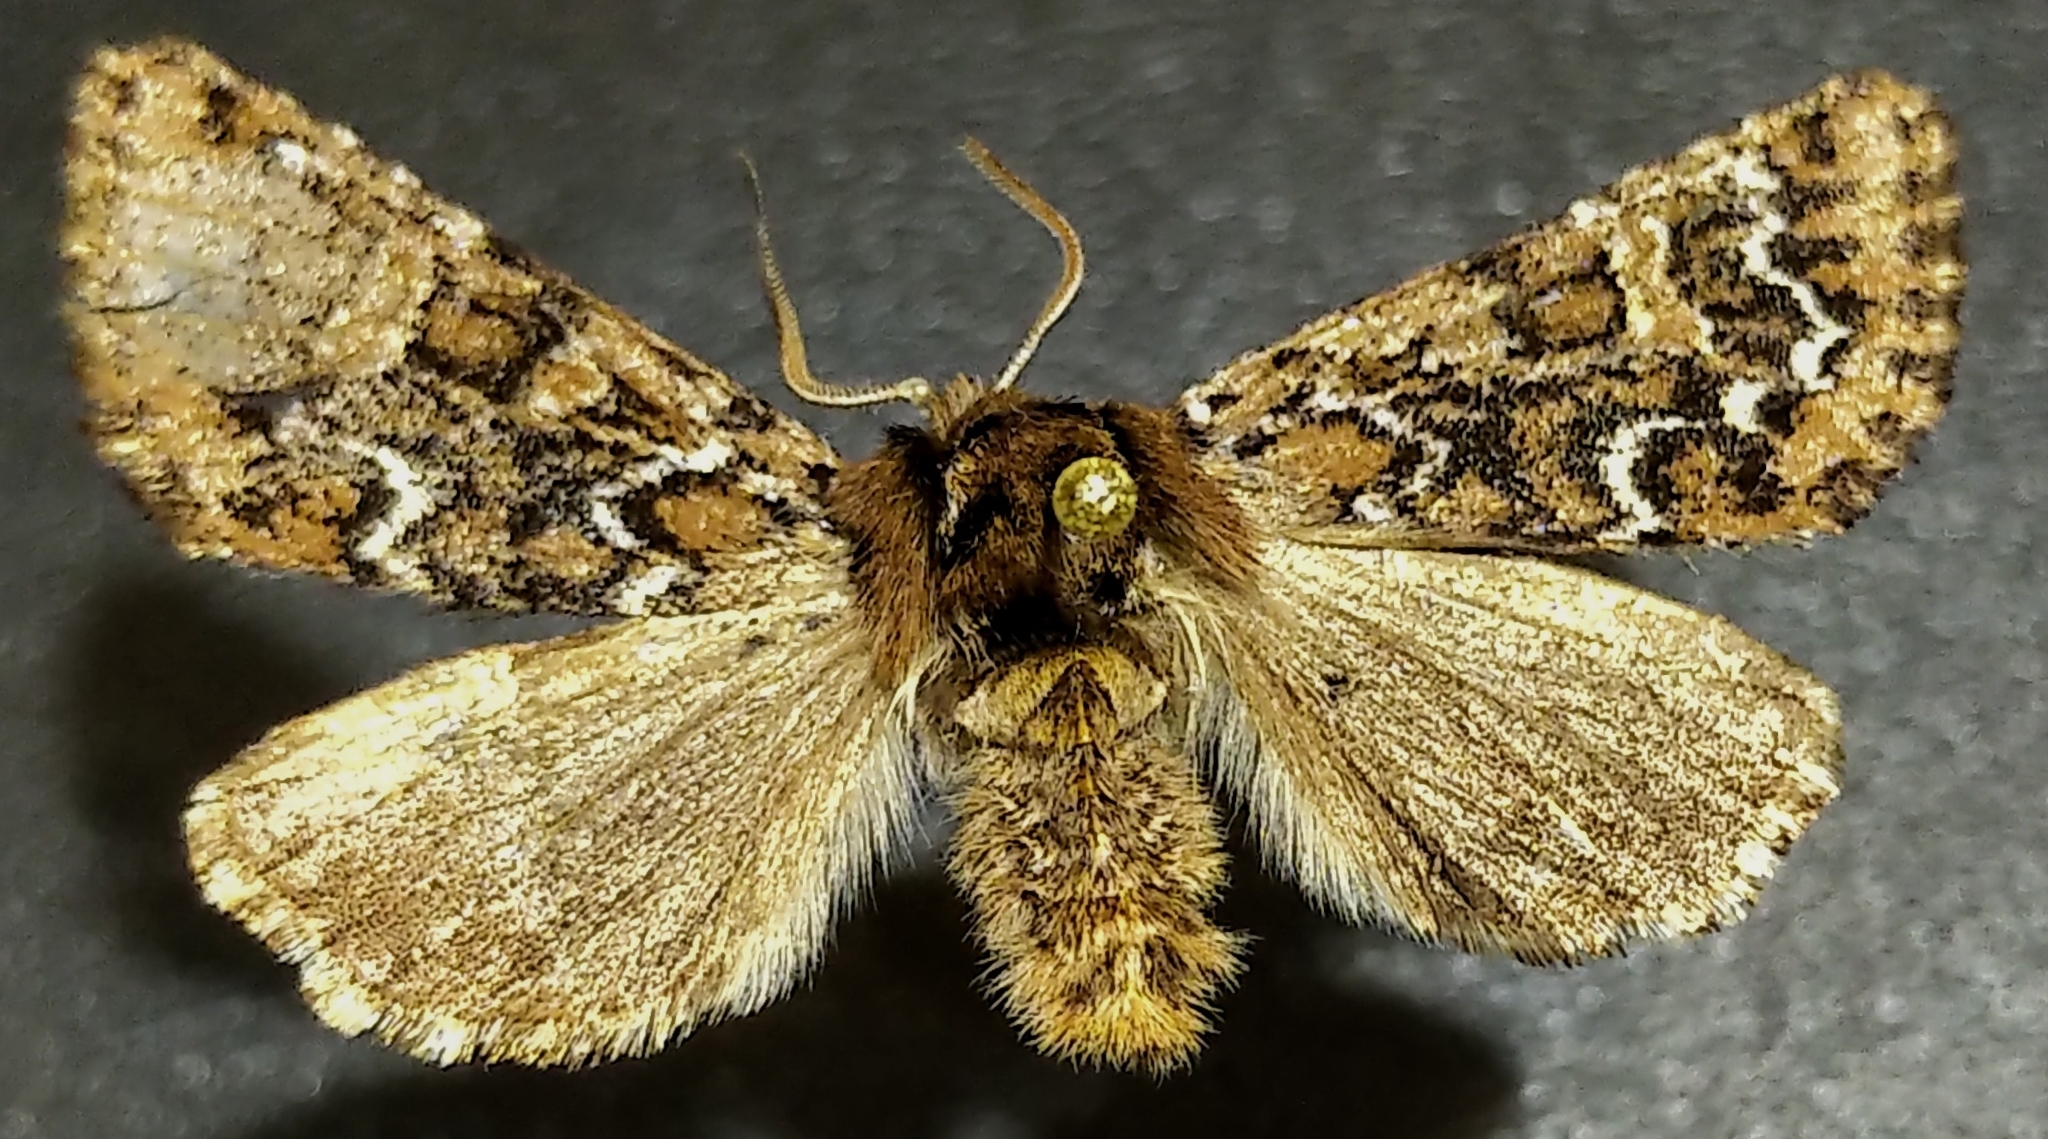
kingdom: Animalia
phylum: Arthropoda
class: Insecta
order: Lepidoptera
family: Noctuidae
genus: Feralia
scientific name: Feralia jocosa
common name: Joker
